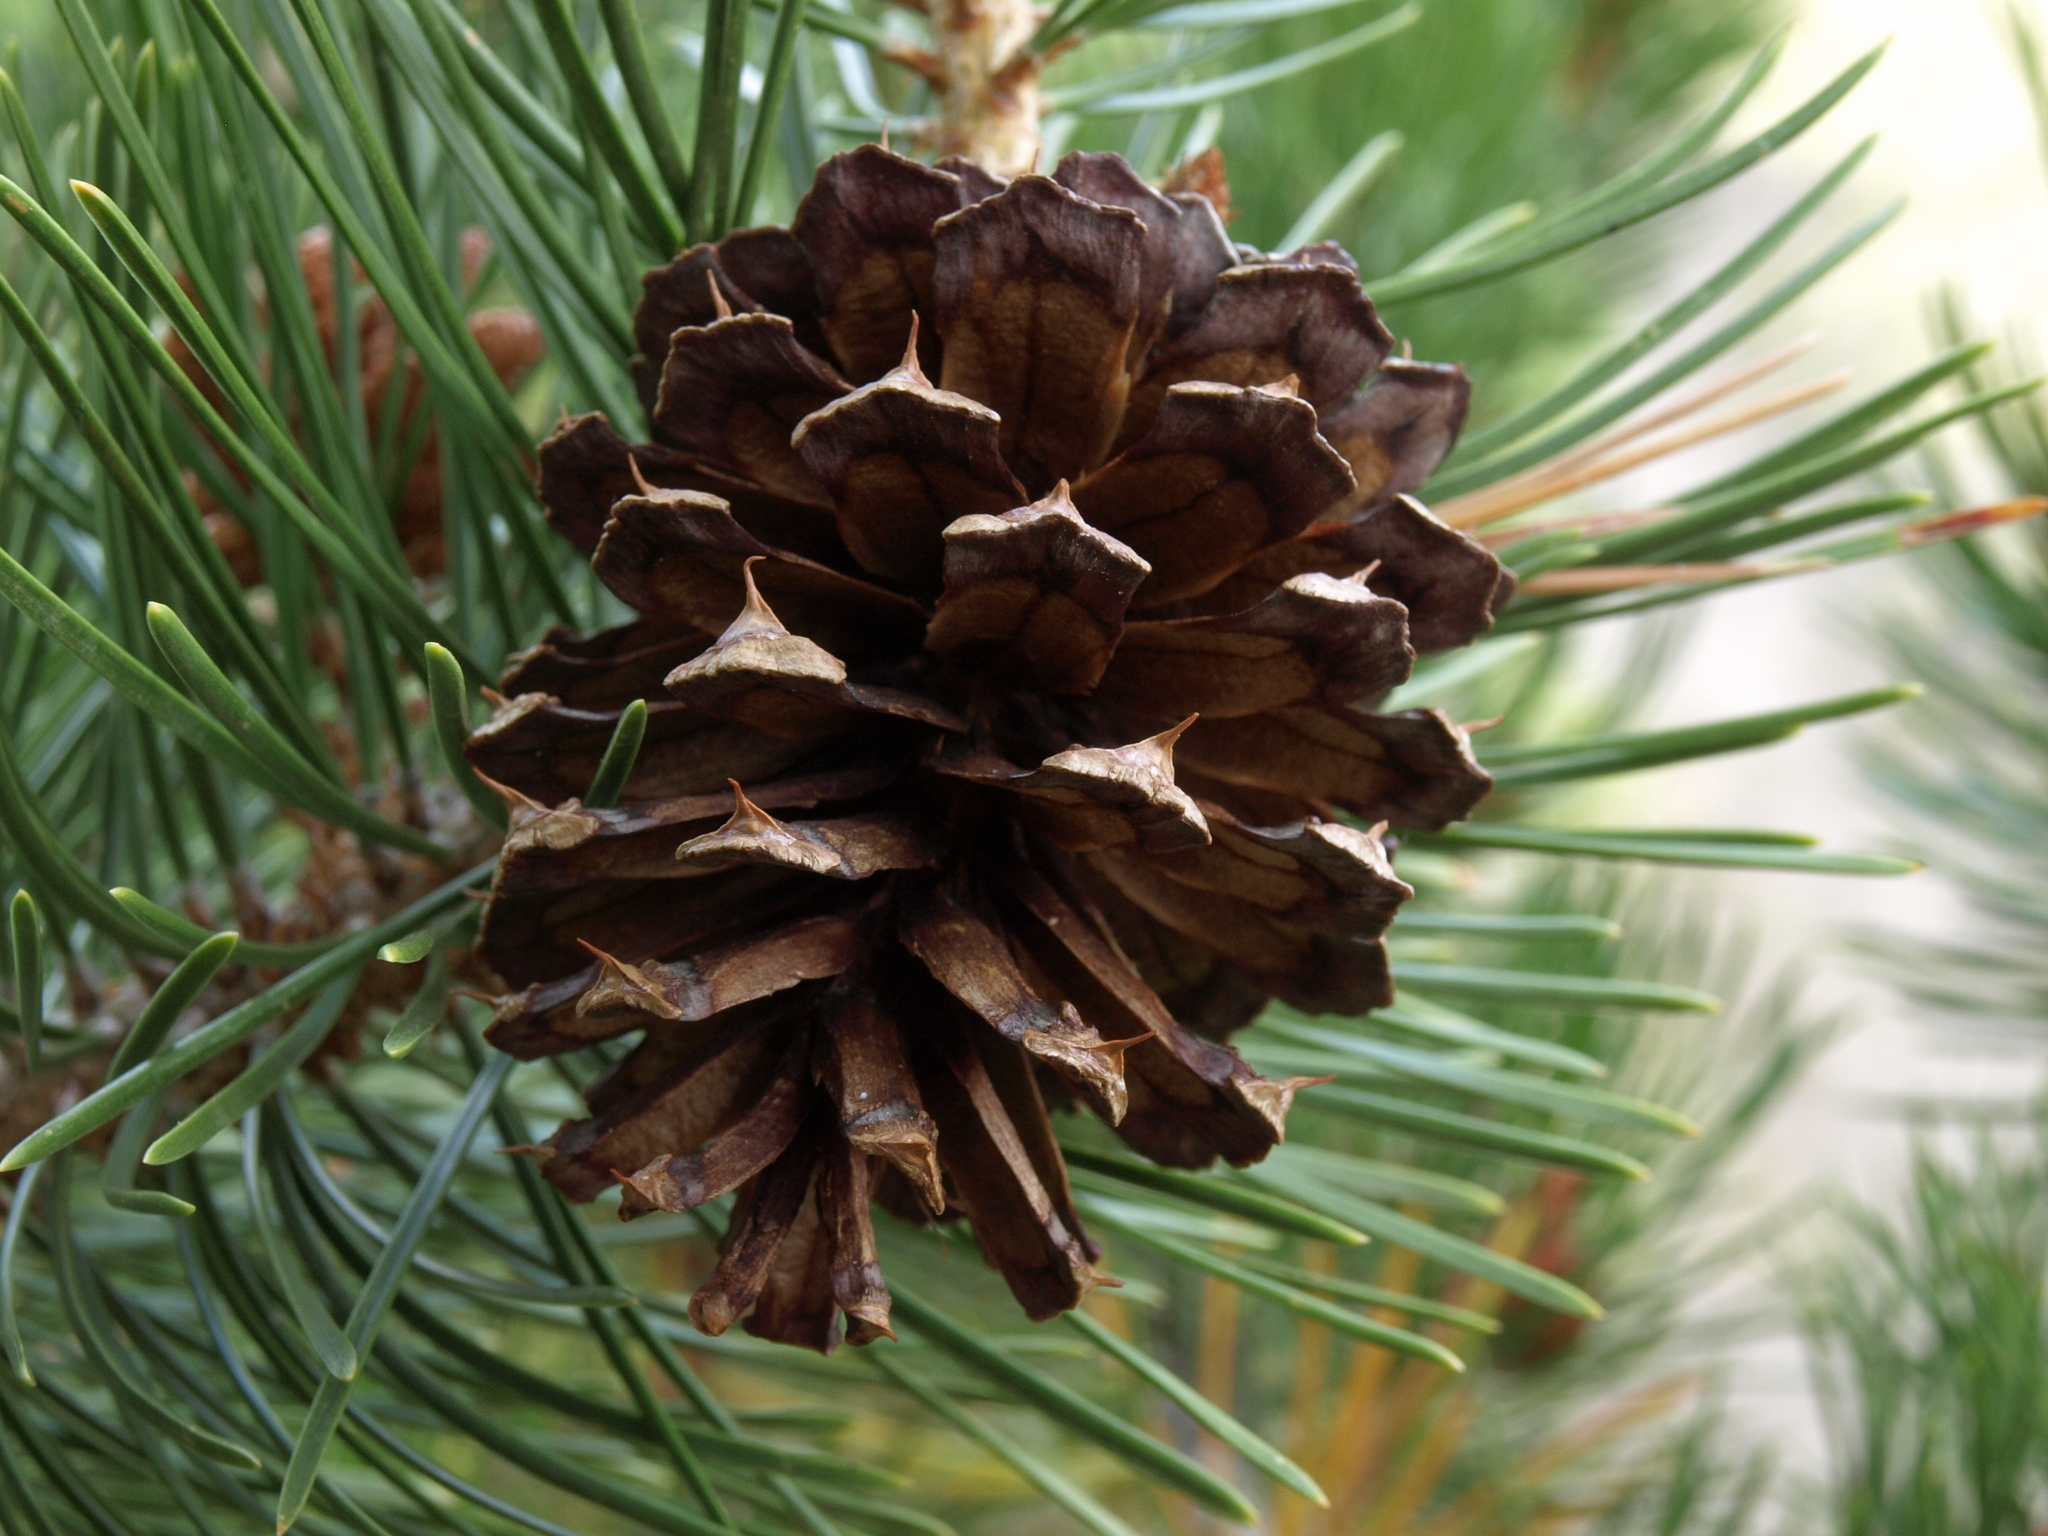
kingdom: Plantae
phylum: Tracheophyta
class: Pinopsida
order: Pinales
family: Pinaceae
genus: Pinus
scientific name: Pinus contorta
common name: Lodgepole pine
